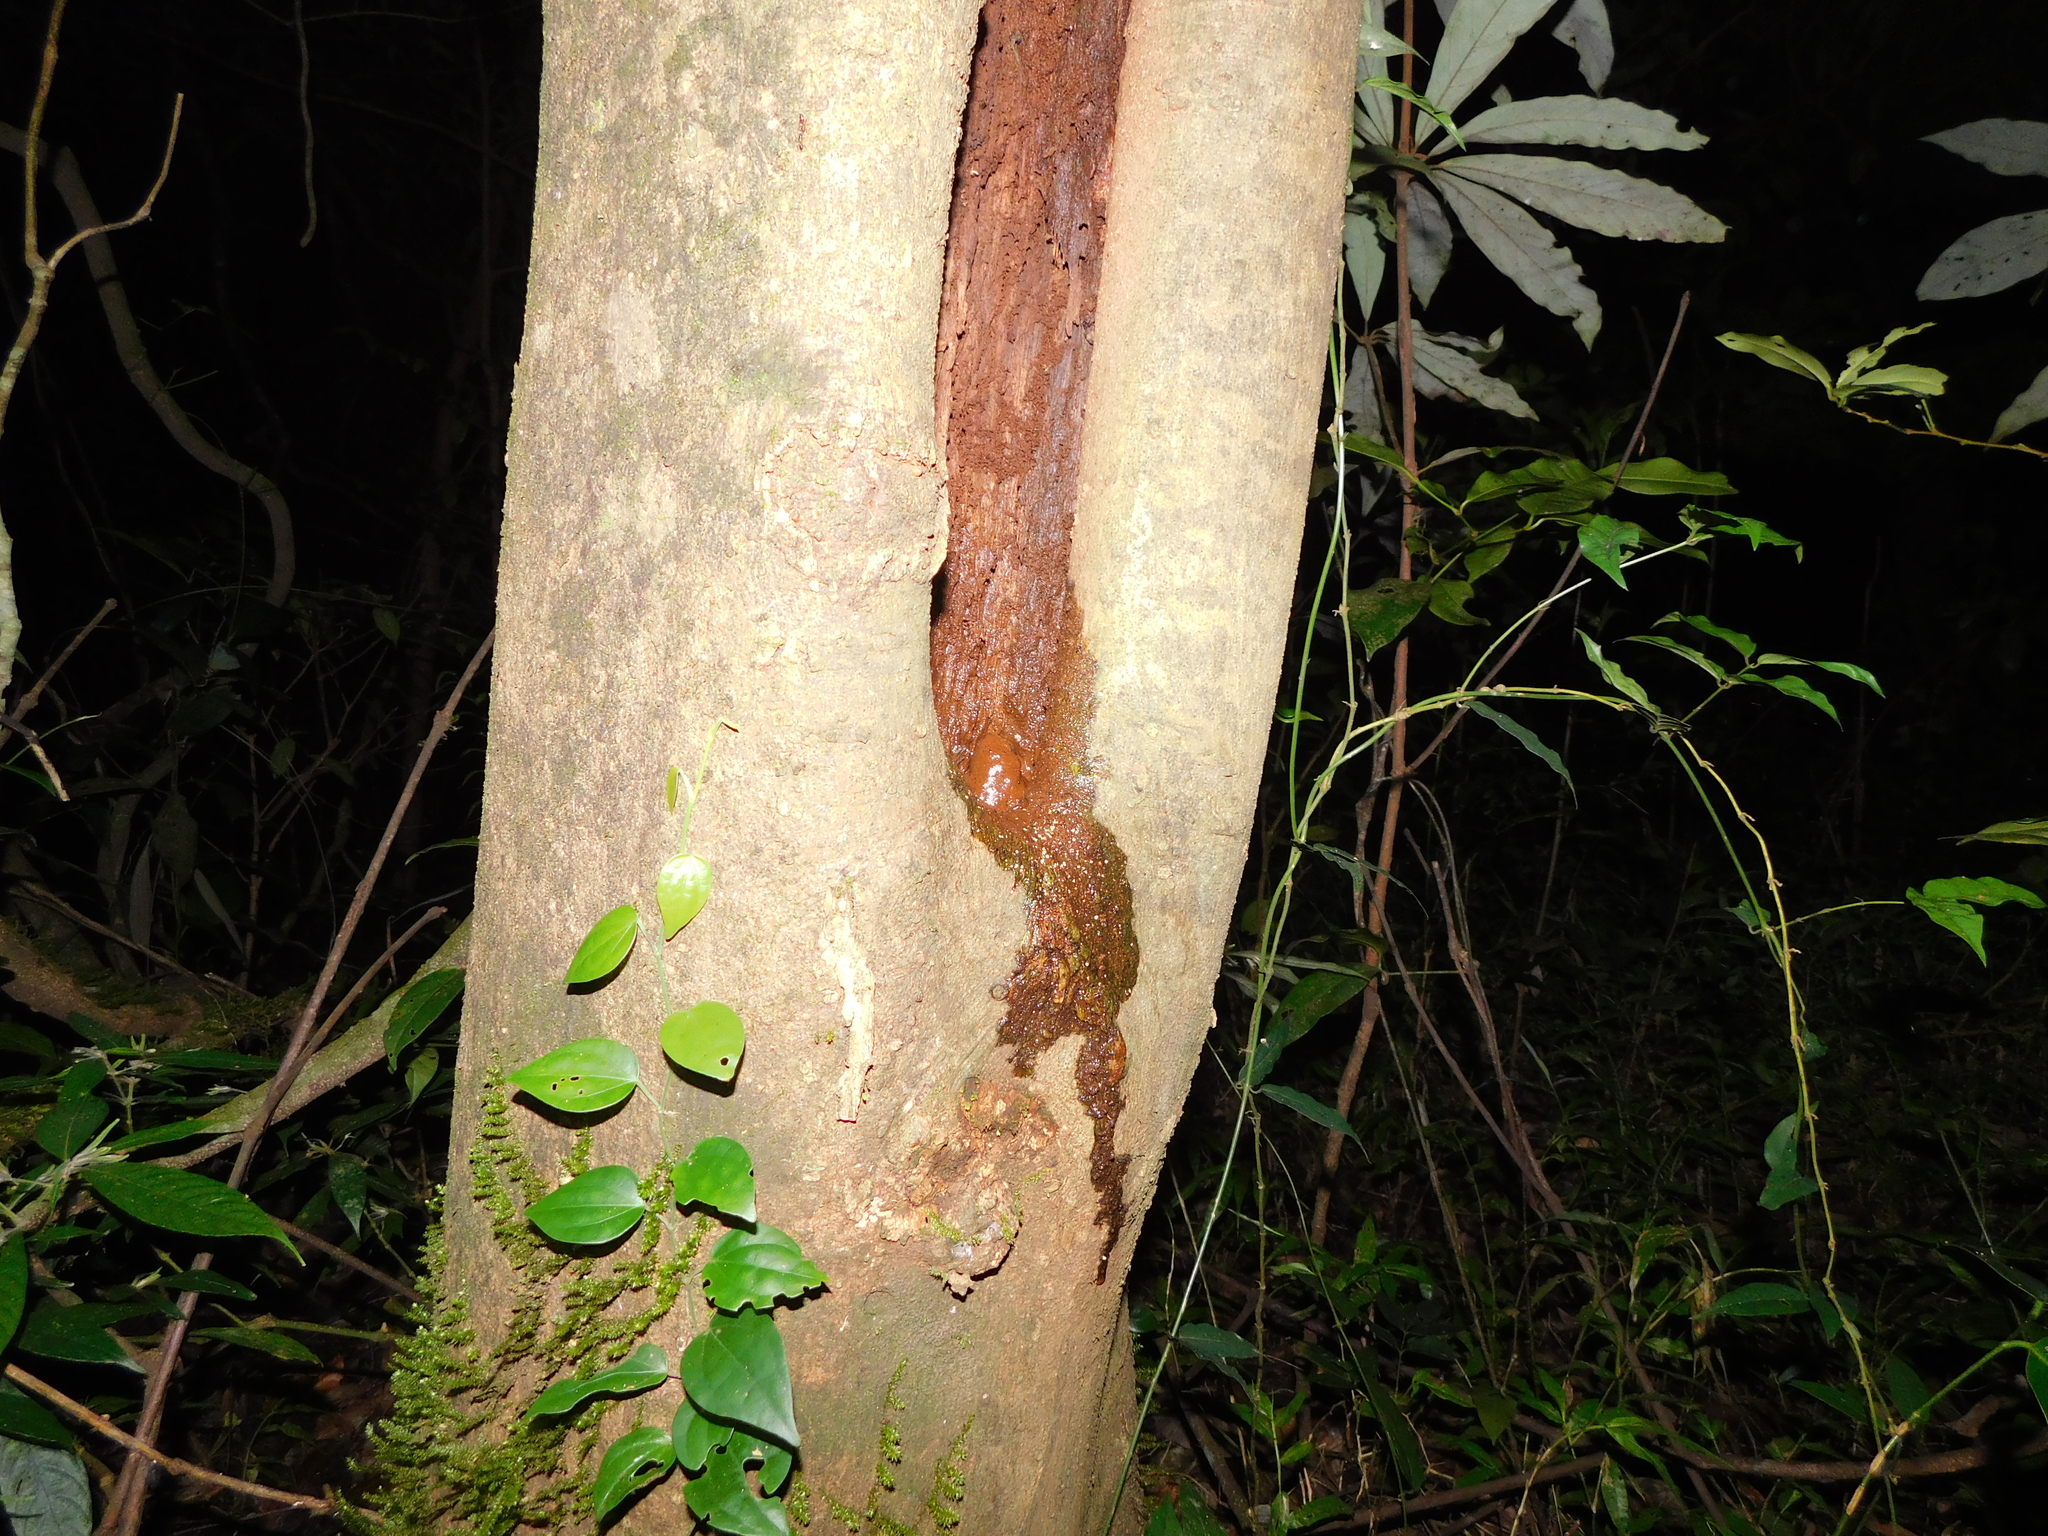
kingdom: Animalia
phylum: Chordata
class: Amphibia
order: Anura
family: Microhylidae
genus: Uperodon
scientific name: Uperodon triangularis
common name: Malabar dot frog
